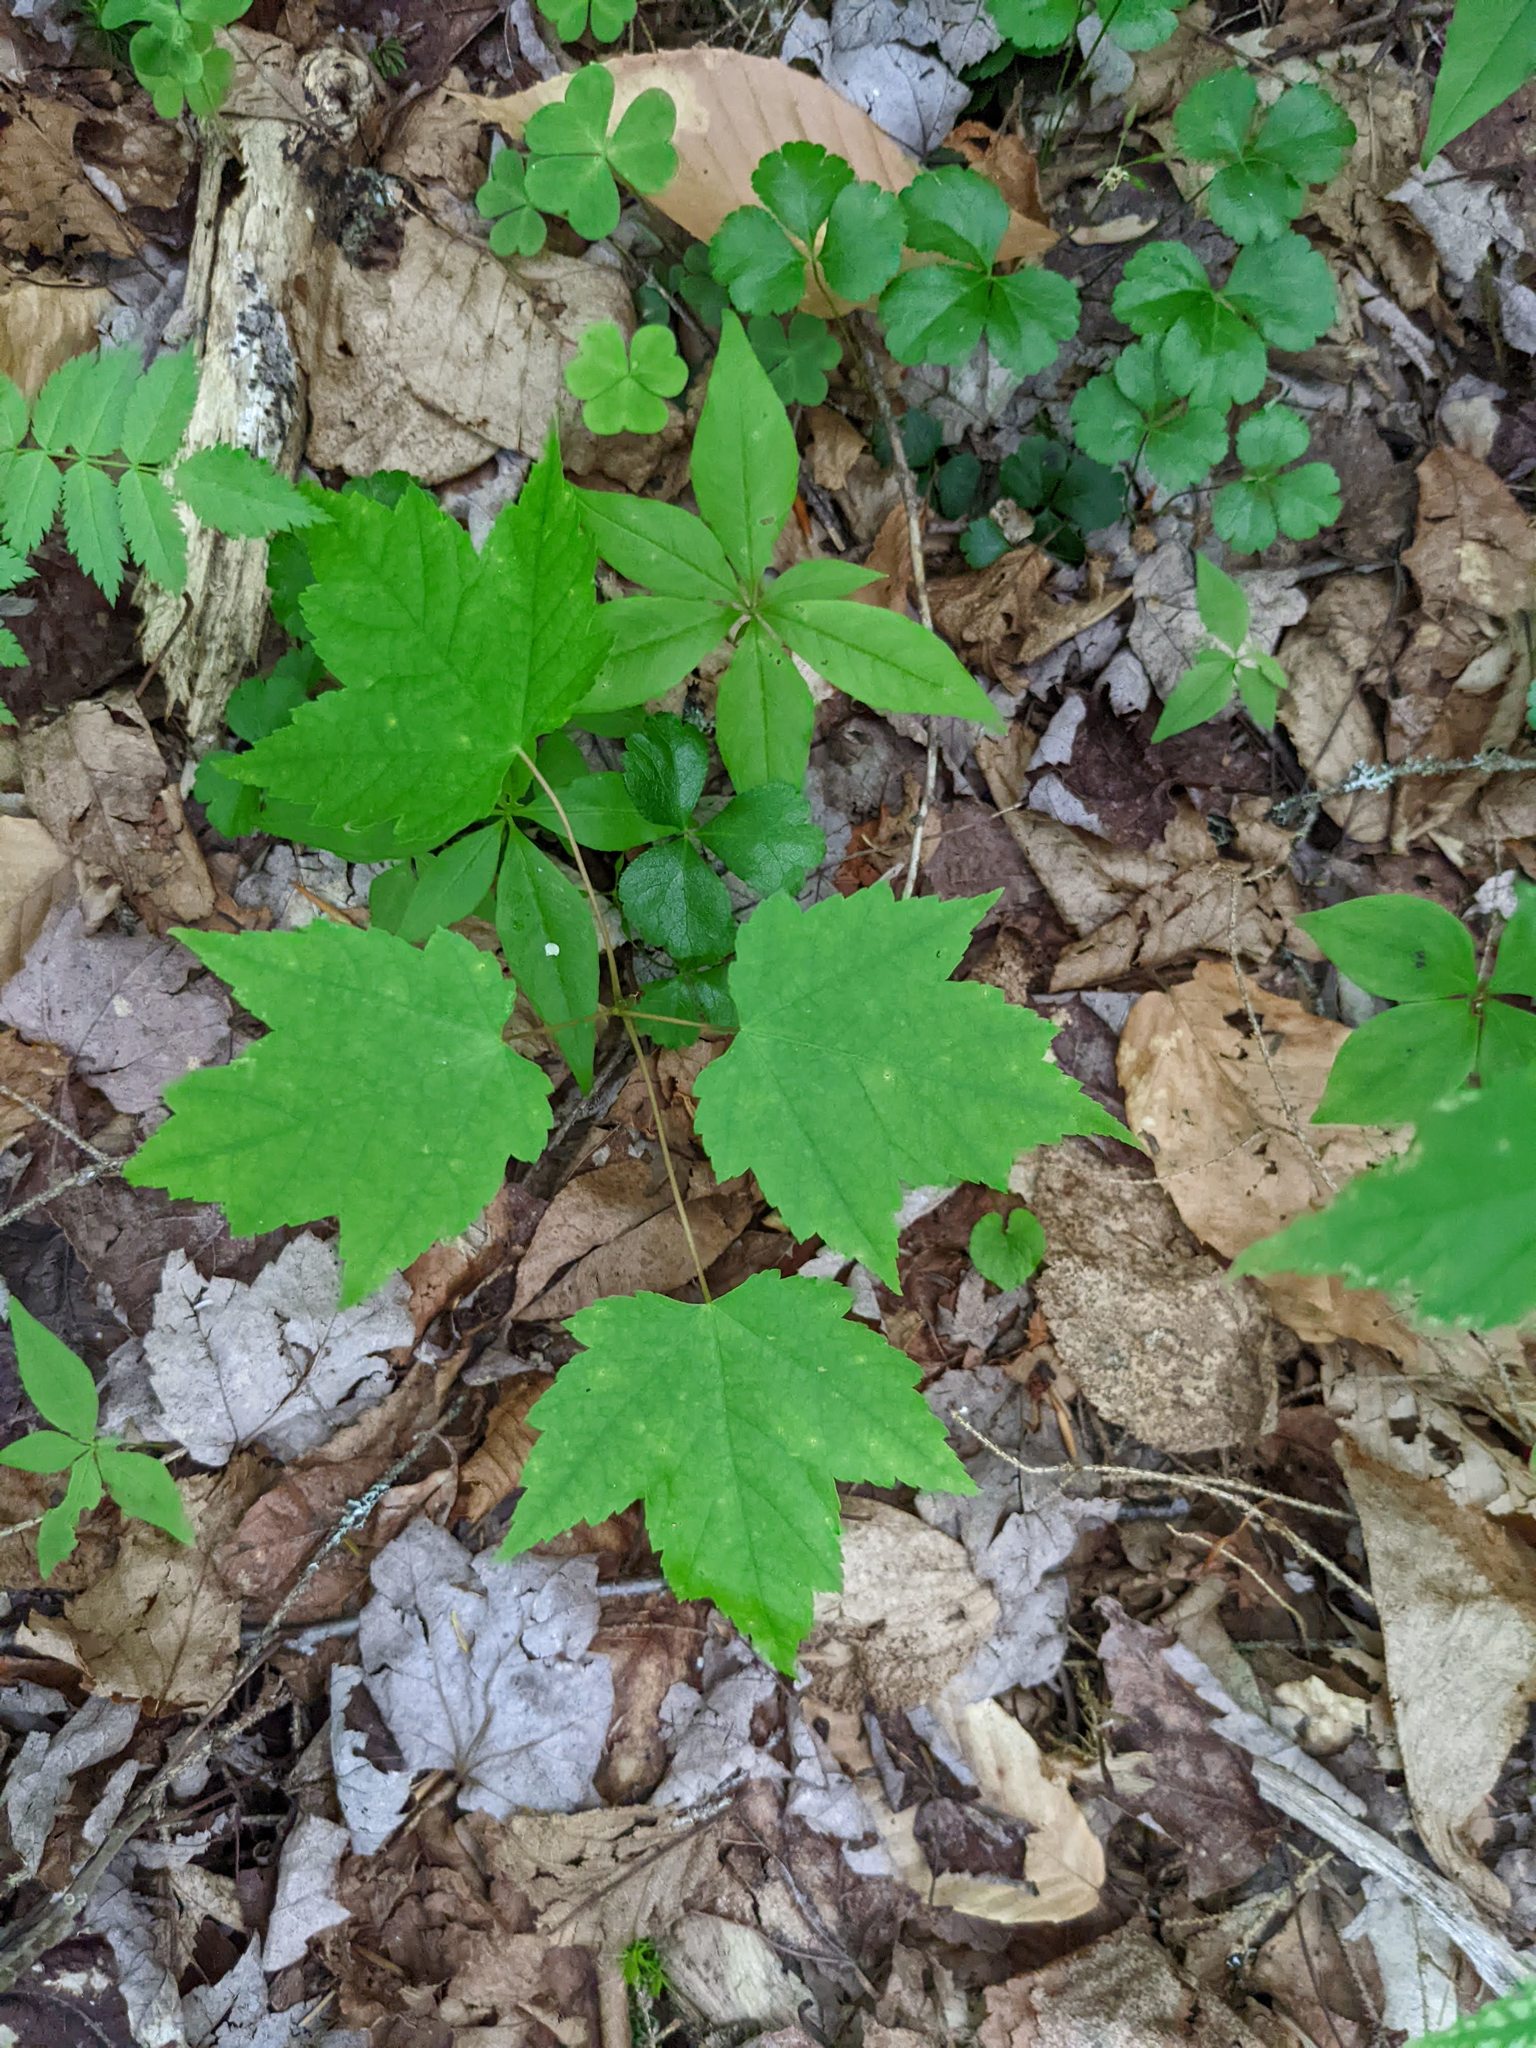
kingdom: Plantae
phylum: Tracheophyta
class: Magnoliopsida
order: Sapindales
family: Sapindaceae
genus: Acer
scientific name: Acer rubrum
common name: Red maple
